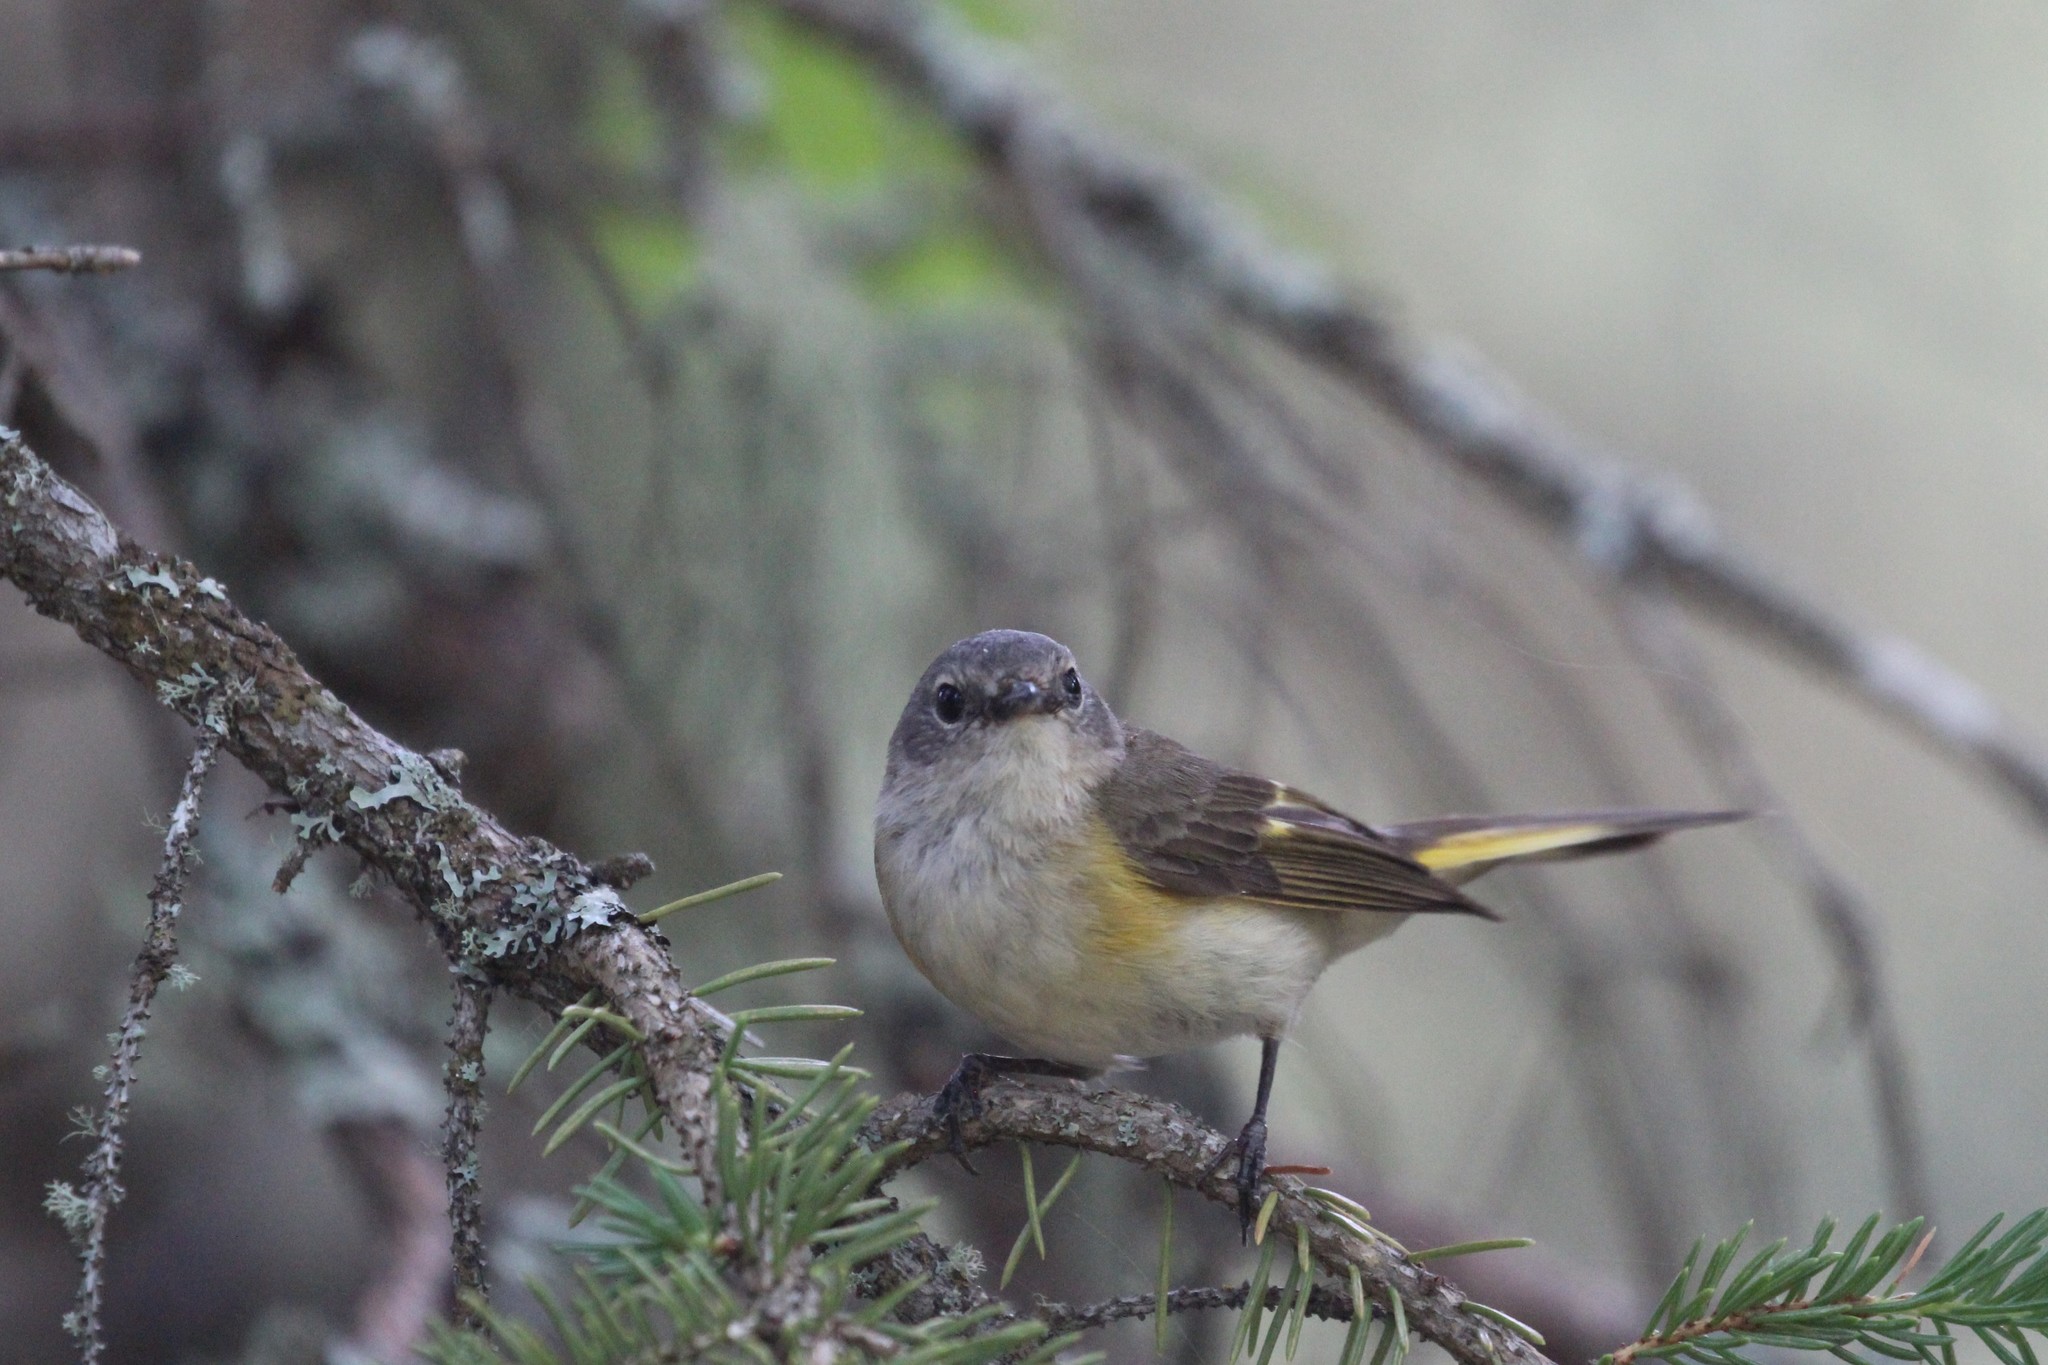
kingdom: Animalia
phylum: Chordata
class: Aves
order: Passeriformes
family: Parulidae
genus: Setophaga
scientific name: Setophaga ruticilla
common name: American redstart
